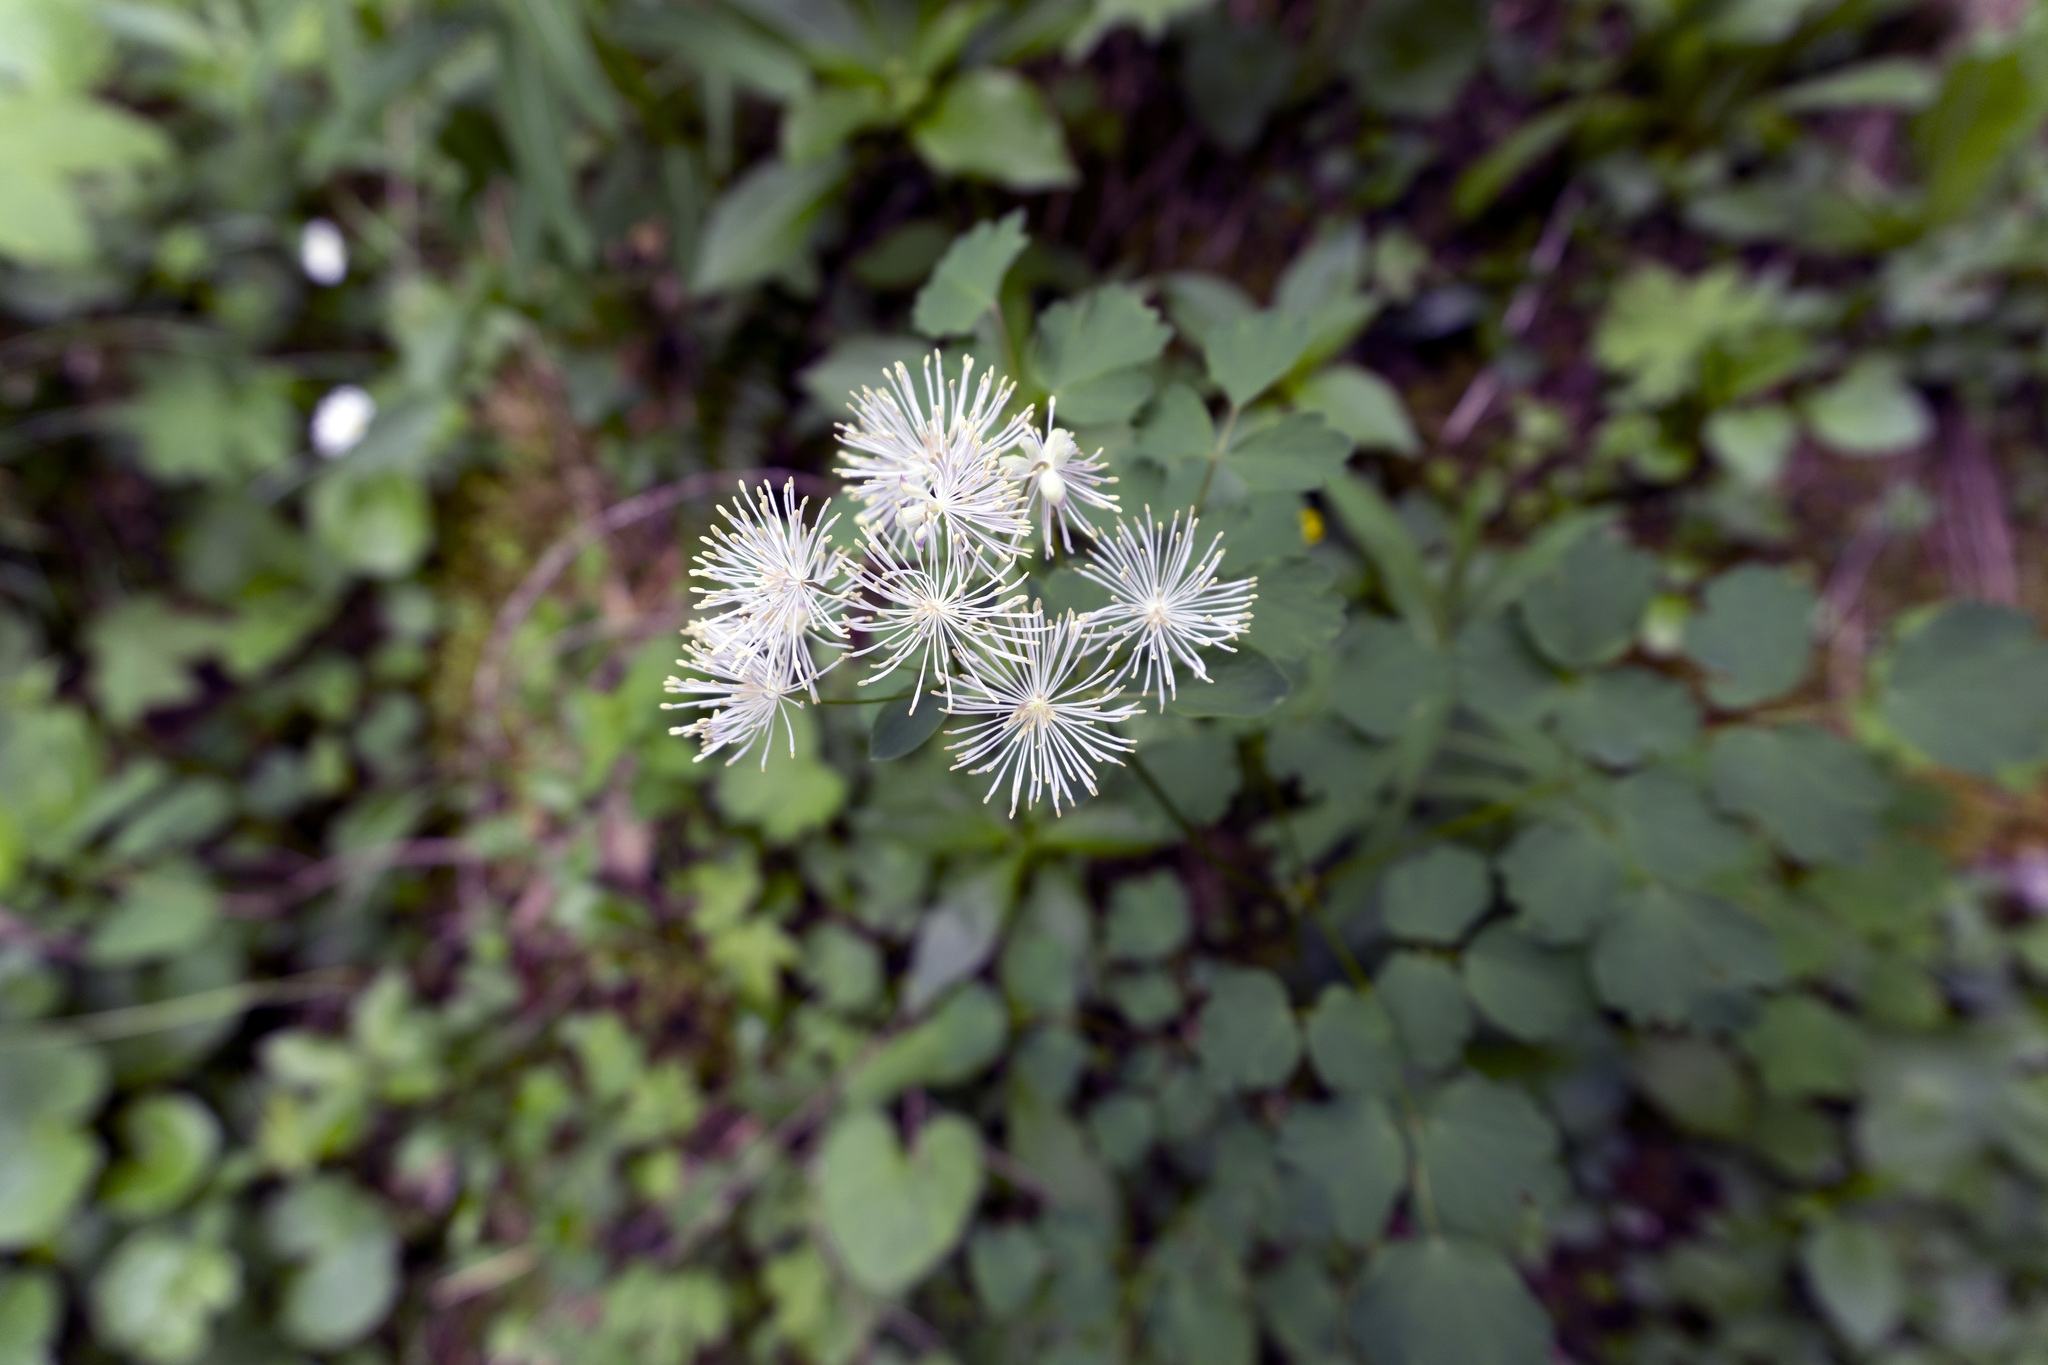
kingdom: Plantae
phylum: Tracheophyta
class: Magnoliopsida
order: Ranunculales
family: Ranunculaceae
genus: Thalictrum
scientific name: Thalictrum aquilegiifolium
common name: French meadow-rue
